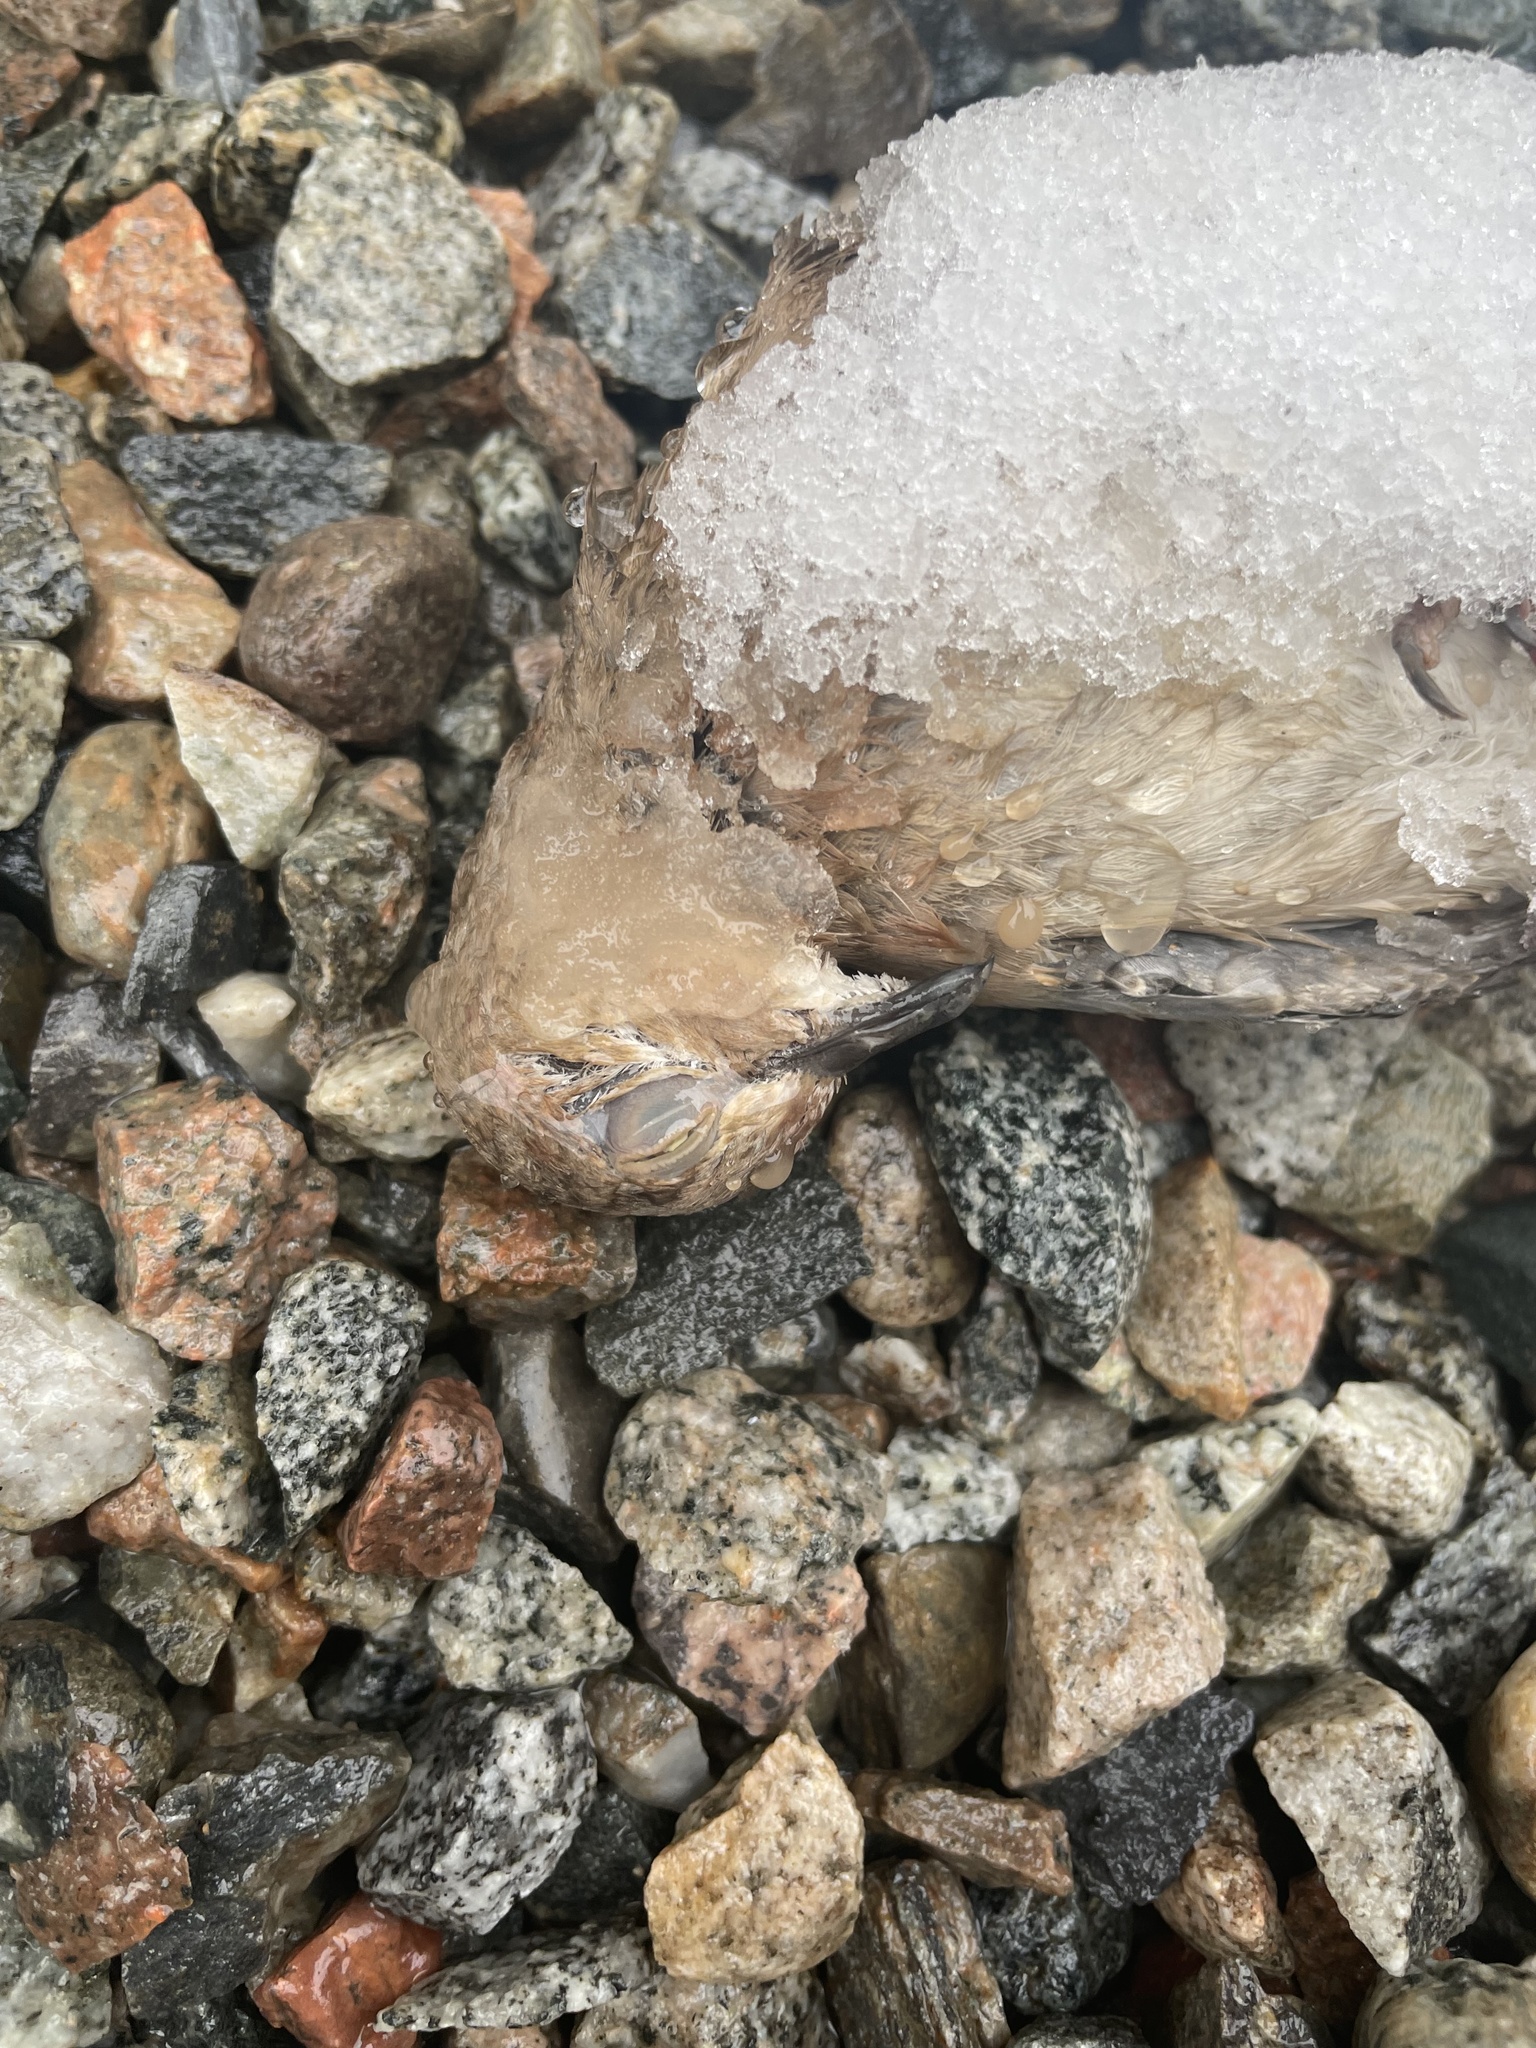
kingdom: Animalia
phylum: Chordata
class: Aves
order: Columbiformes
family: Columbidae
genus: Spilopelia
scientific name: Spilopelia senegalensis
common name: Laughing dove
